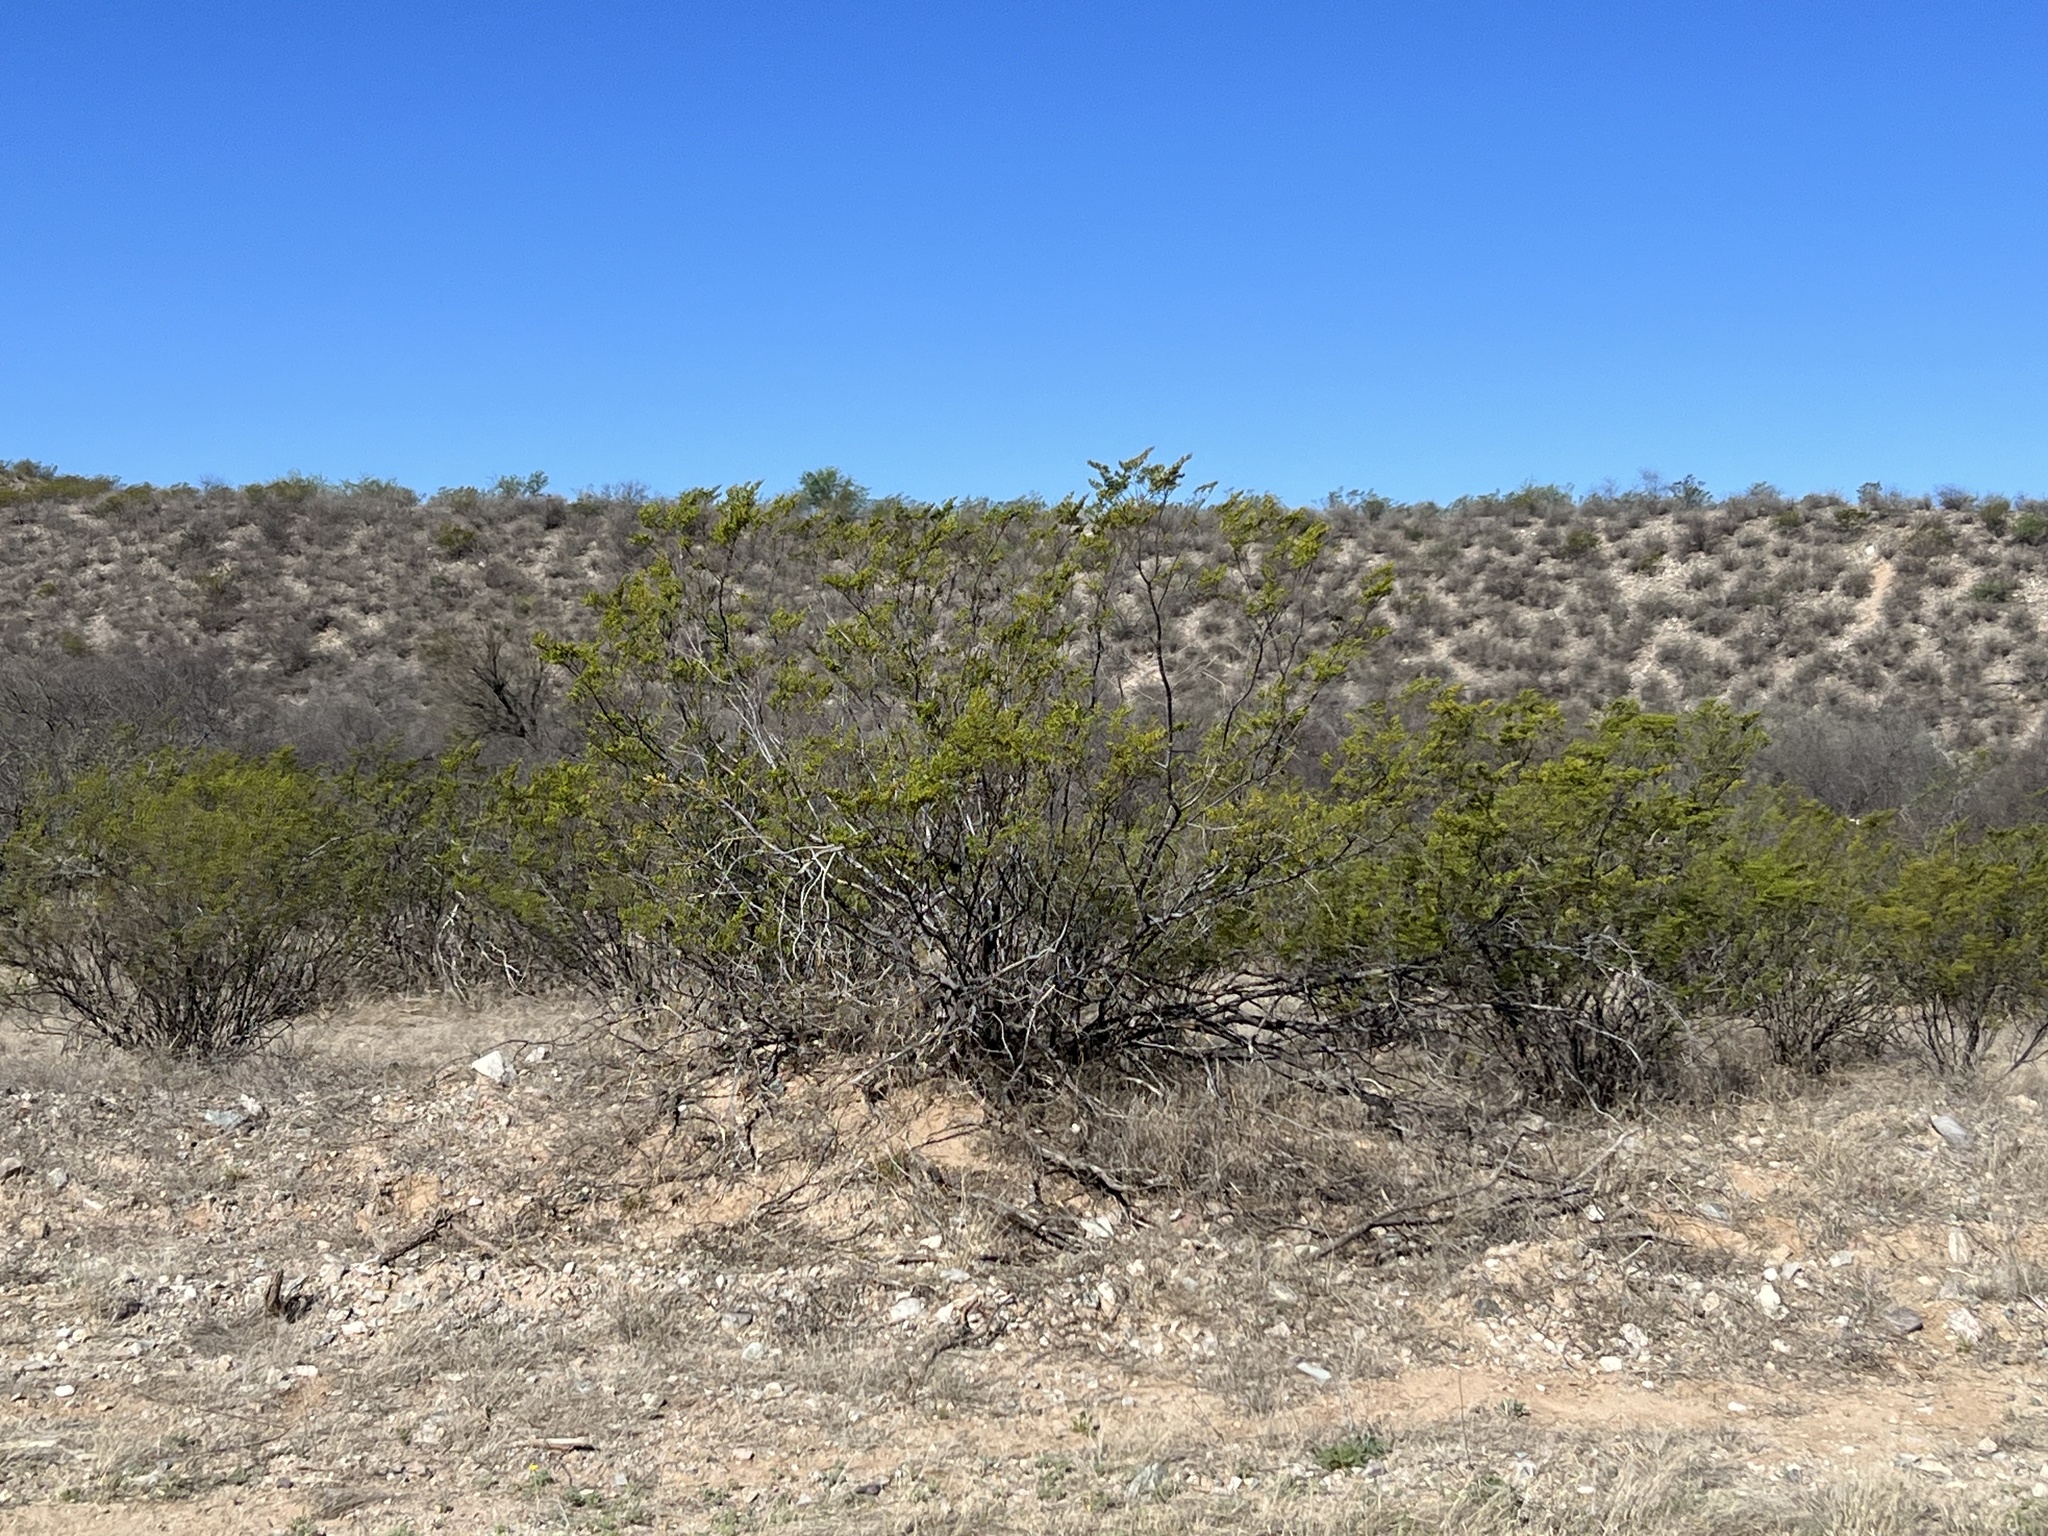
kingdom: Plantae
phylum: Tracheophyta
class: Magnoliopsida
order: Zygophyllales
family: Zygophyllaceae
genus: Larrea
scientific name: Larrea tridentata
